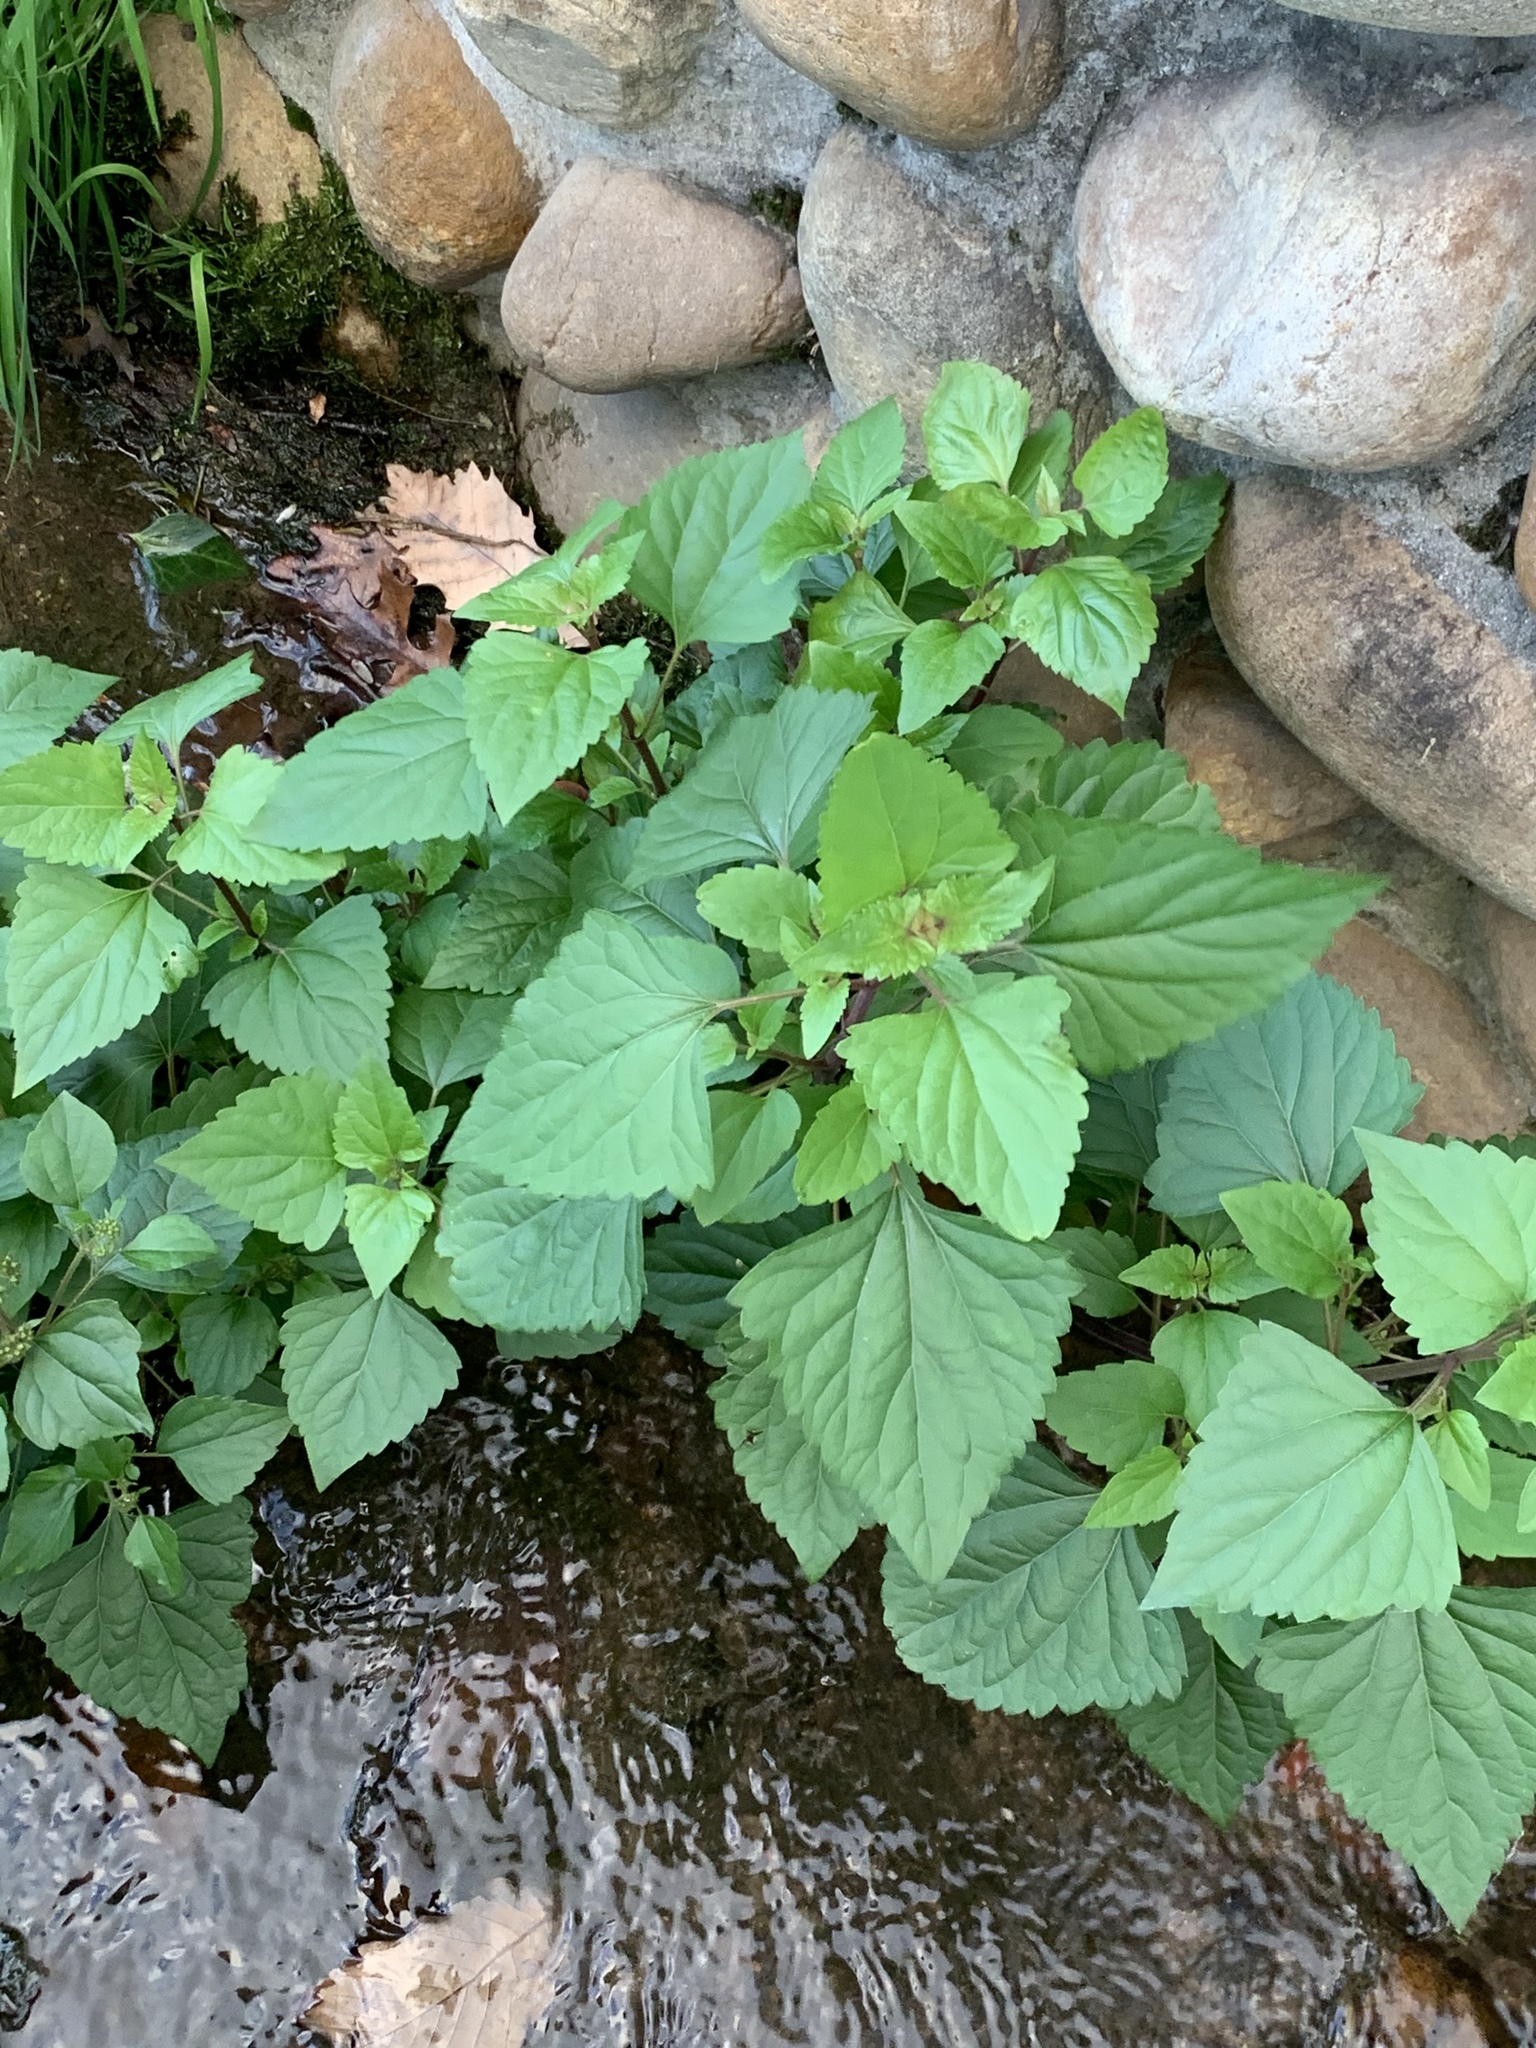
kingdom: Plantae
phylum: Tracheophyta
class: Magnoliopsida
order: Asterales
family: Asteraceae
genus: Ageratina
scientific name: Ageratina adenophora
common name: Sticky snakeroot
